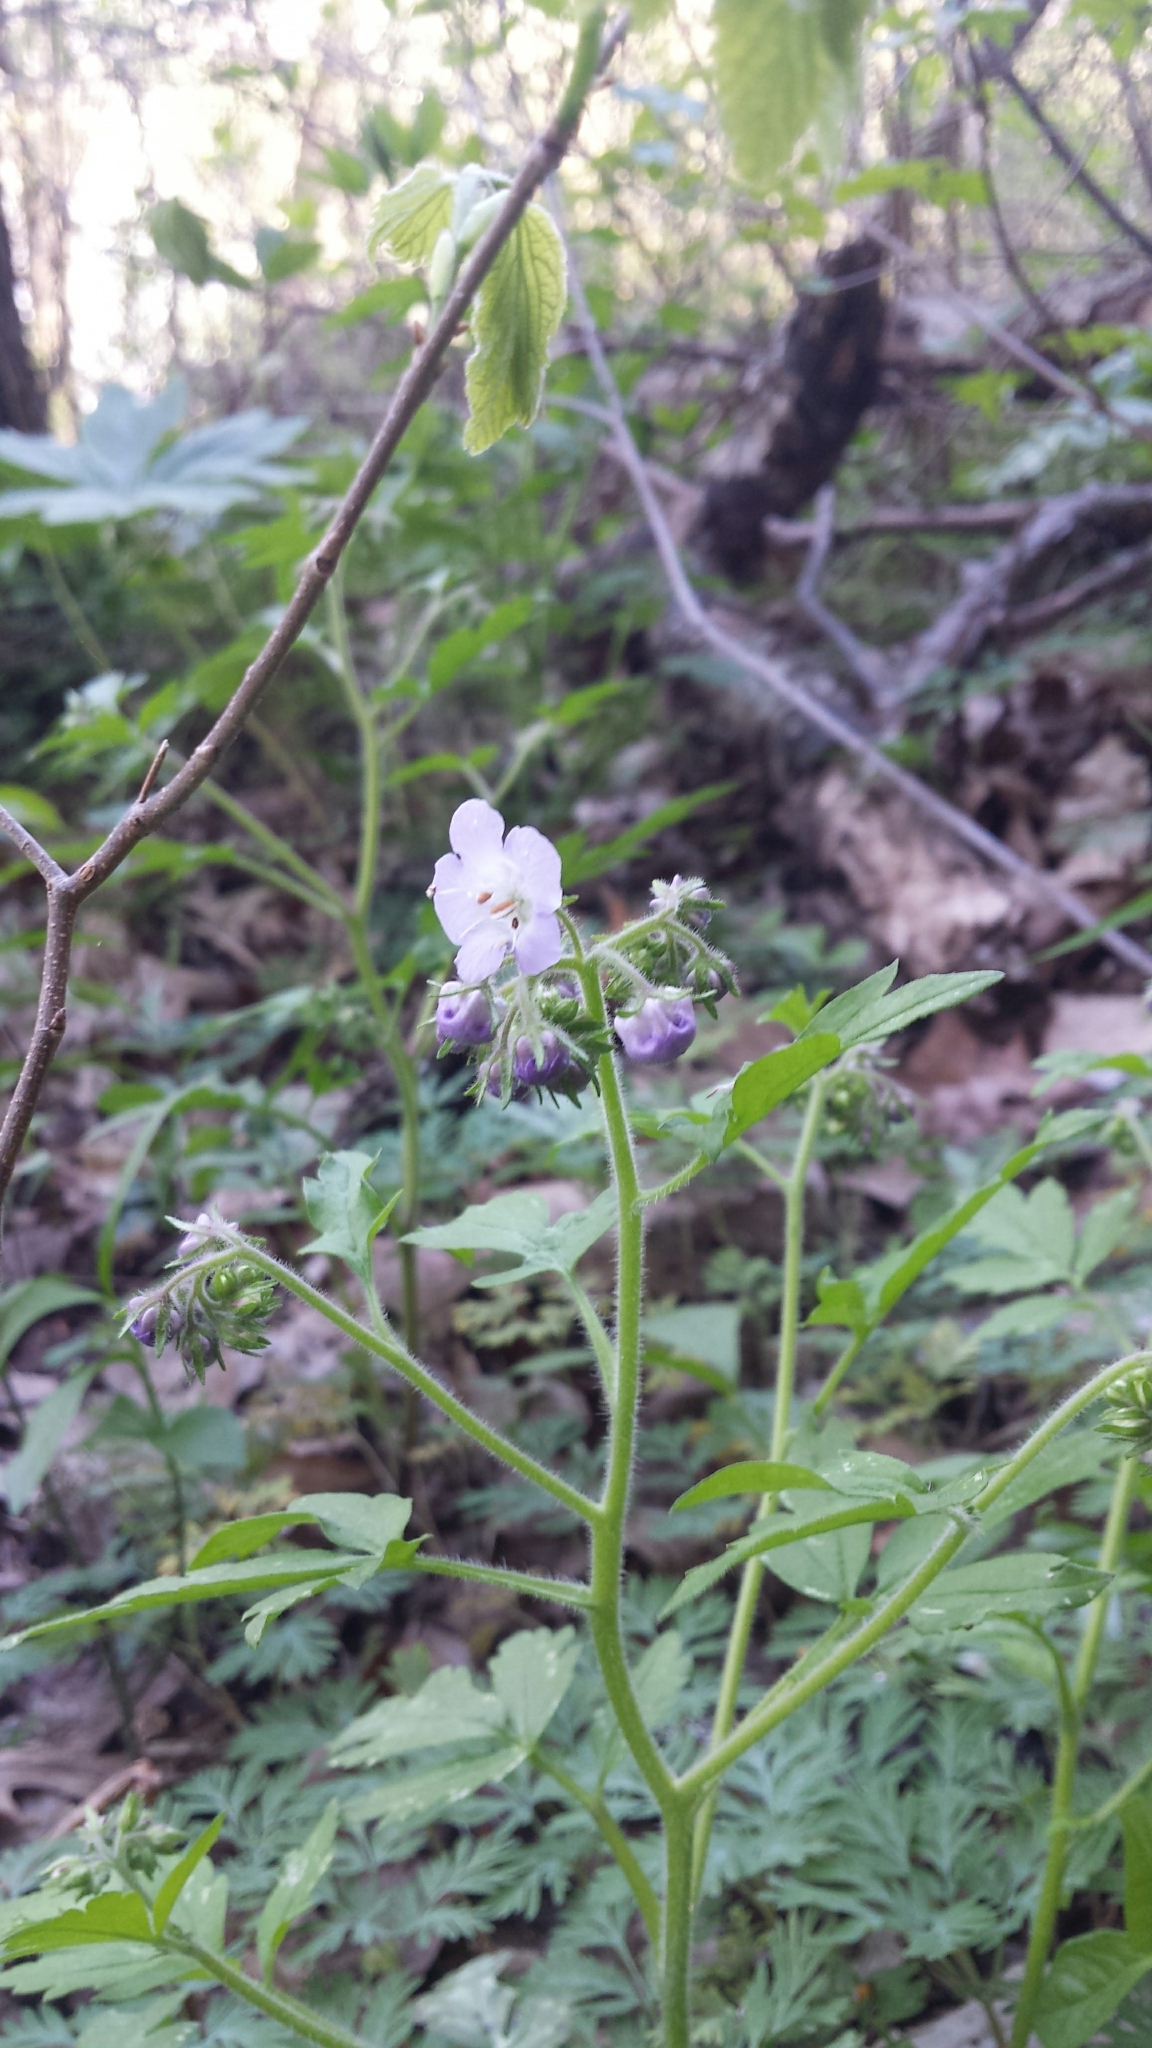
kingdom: Plantae
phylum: Tracheophyta
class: Magnoliopsida
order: Boraginales
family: Hydrophyllaceae
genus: Phacelia
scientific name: Phacelia bipinnatifida
